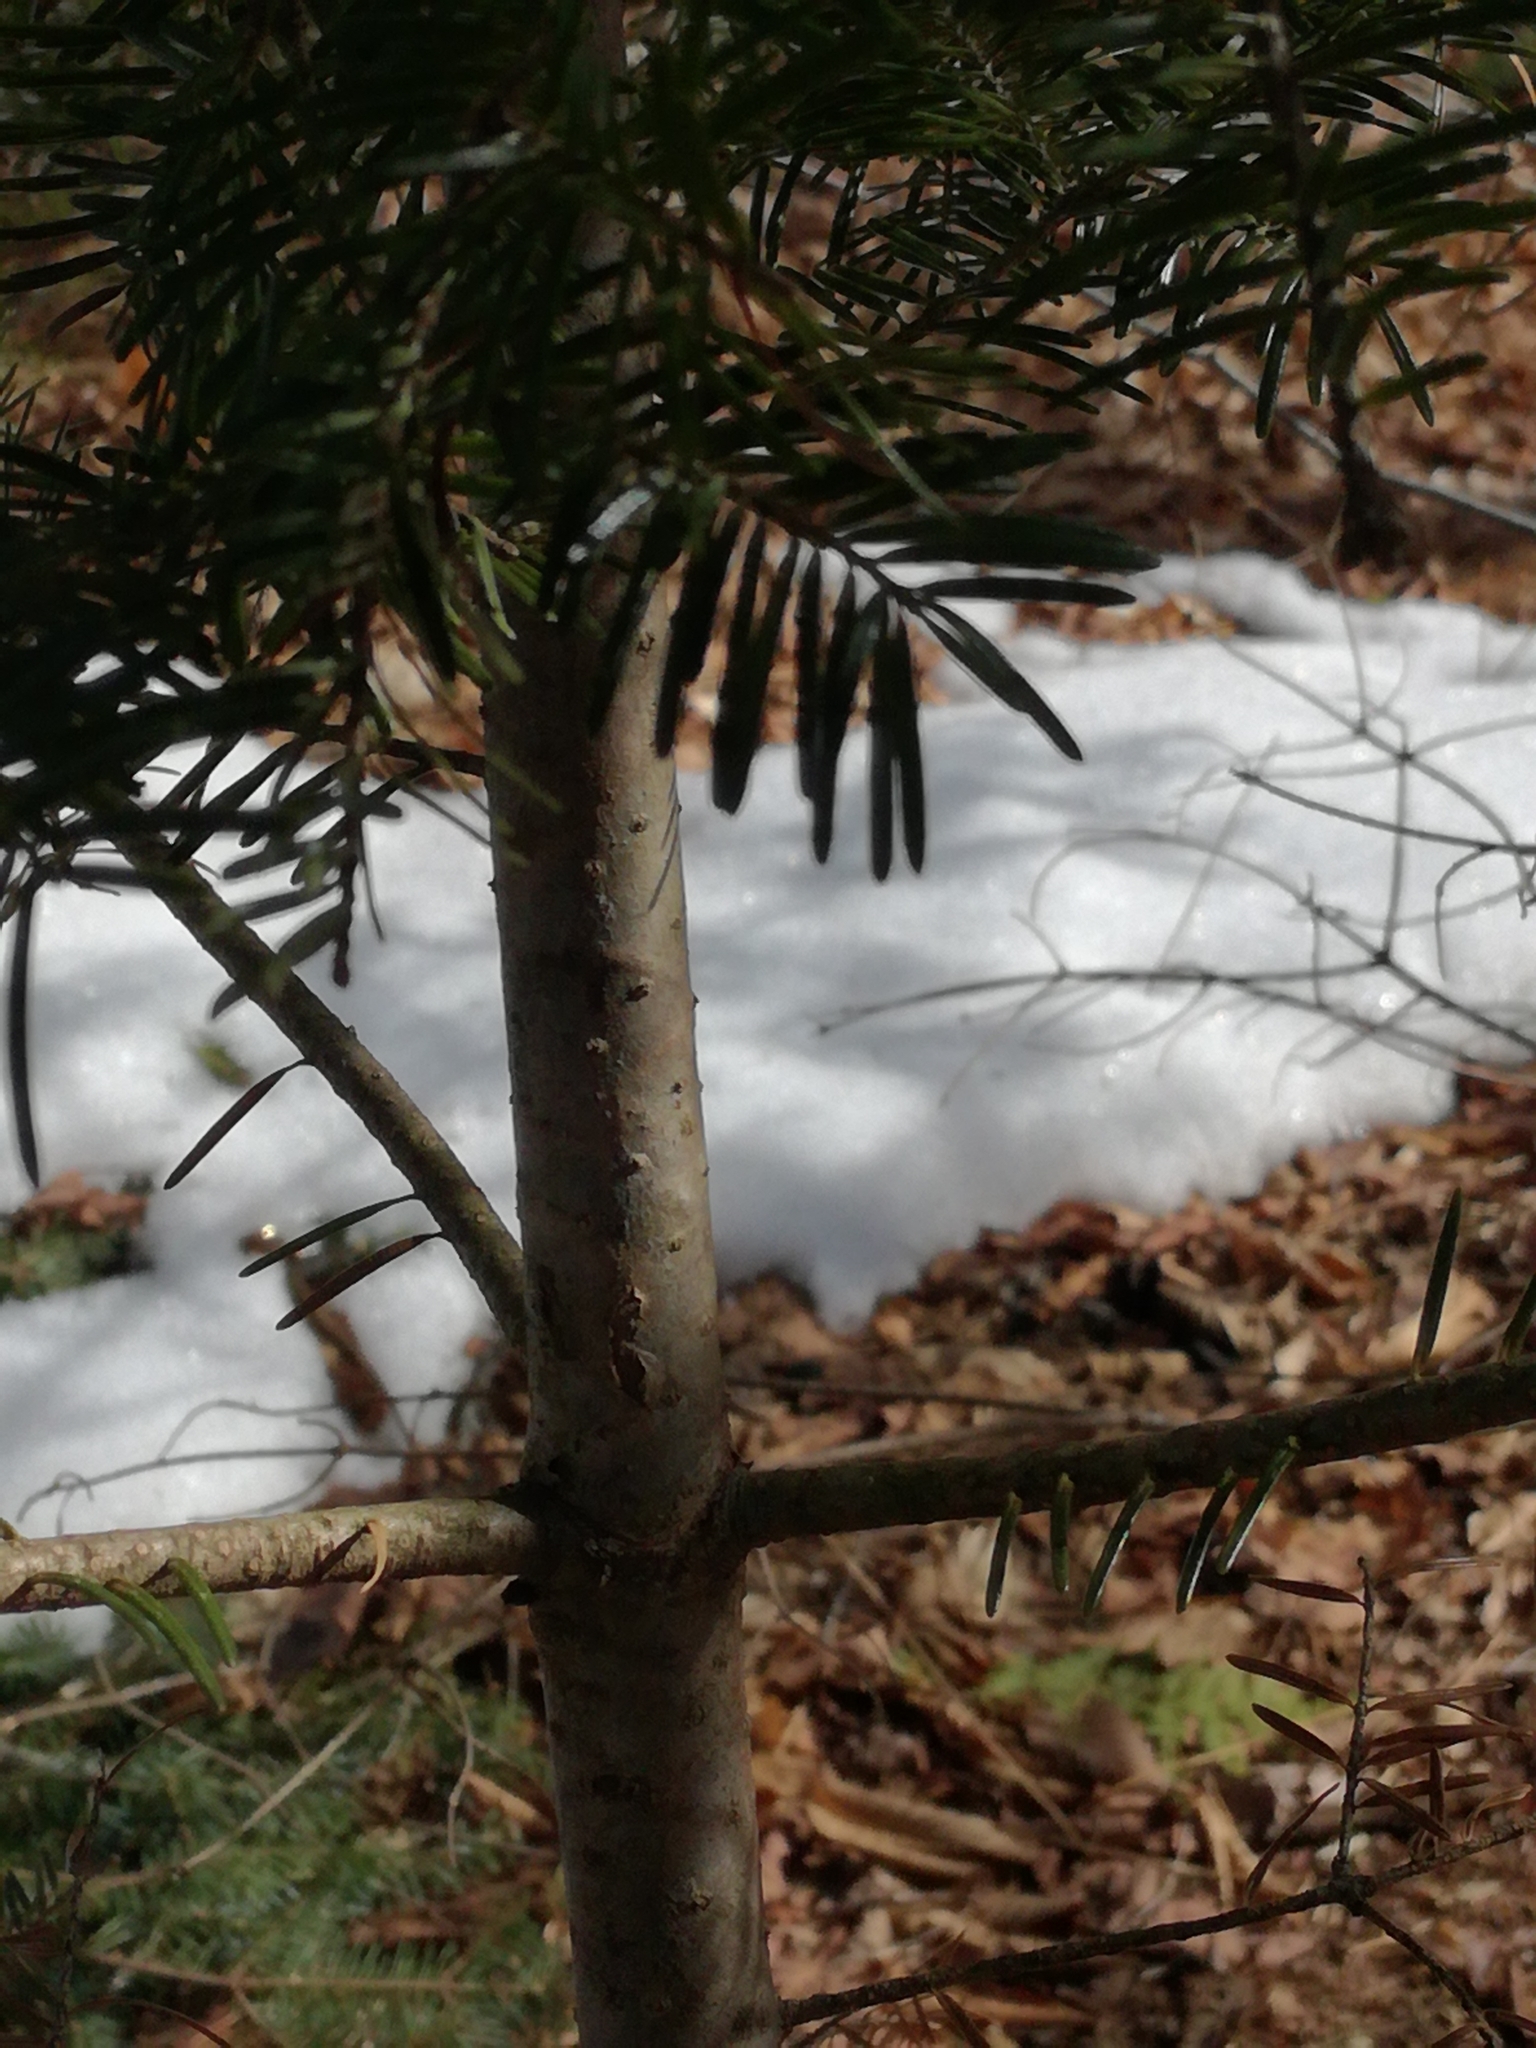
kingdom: Plantae
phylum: Tracheophyta
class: Pinopsida
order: Pinales
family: Pinaceae
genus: Abies
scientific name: Abies balsamea
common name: Balsam fir
